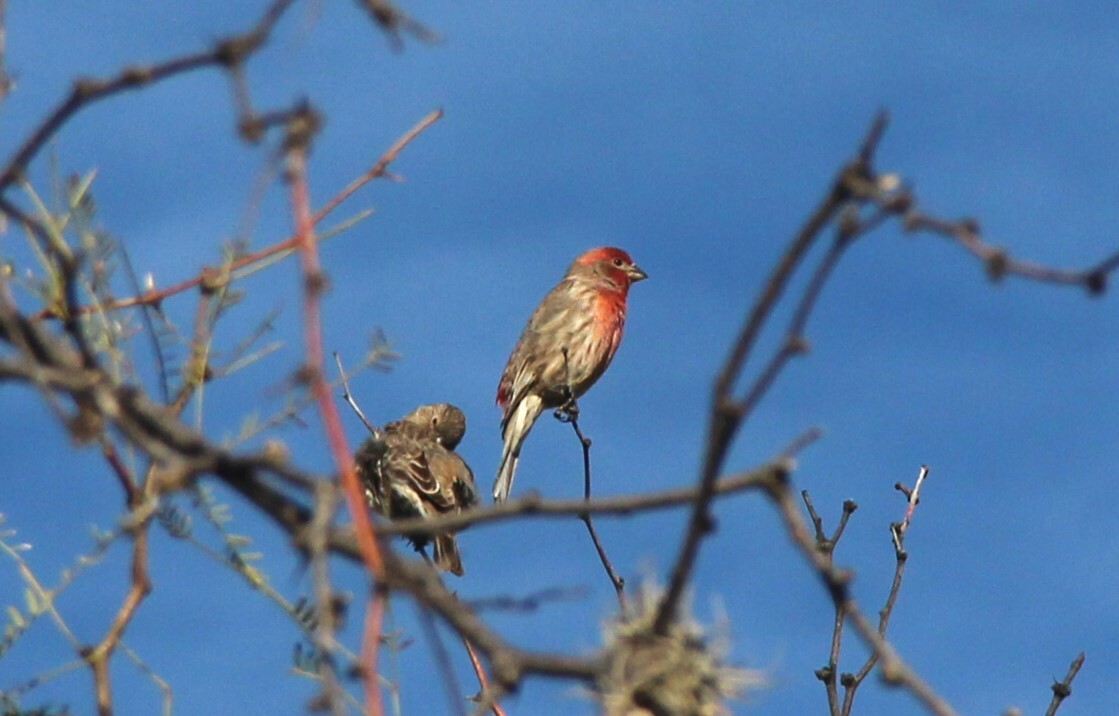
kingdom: Animalia
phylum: Chordata
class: Aves
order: Passeriformes
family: Fringillidae
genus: Haemorhous
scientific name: Haemorhous mexicanus
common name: House finch
